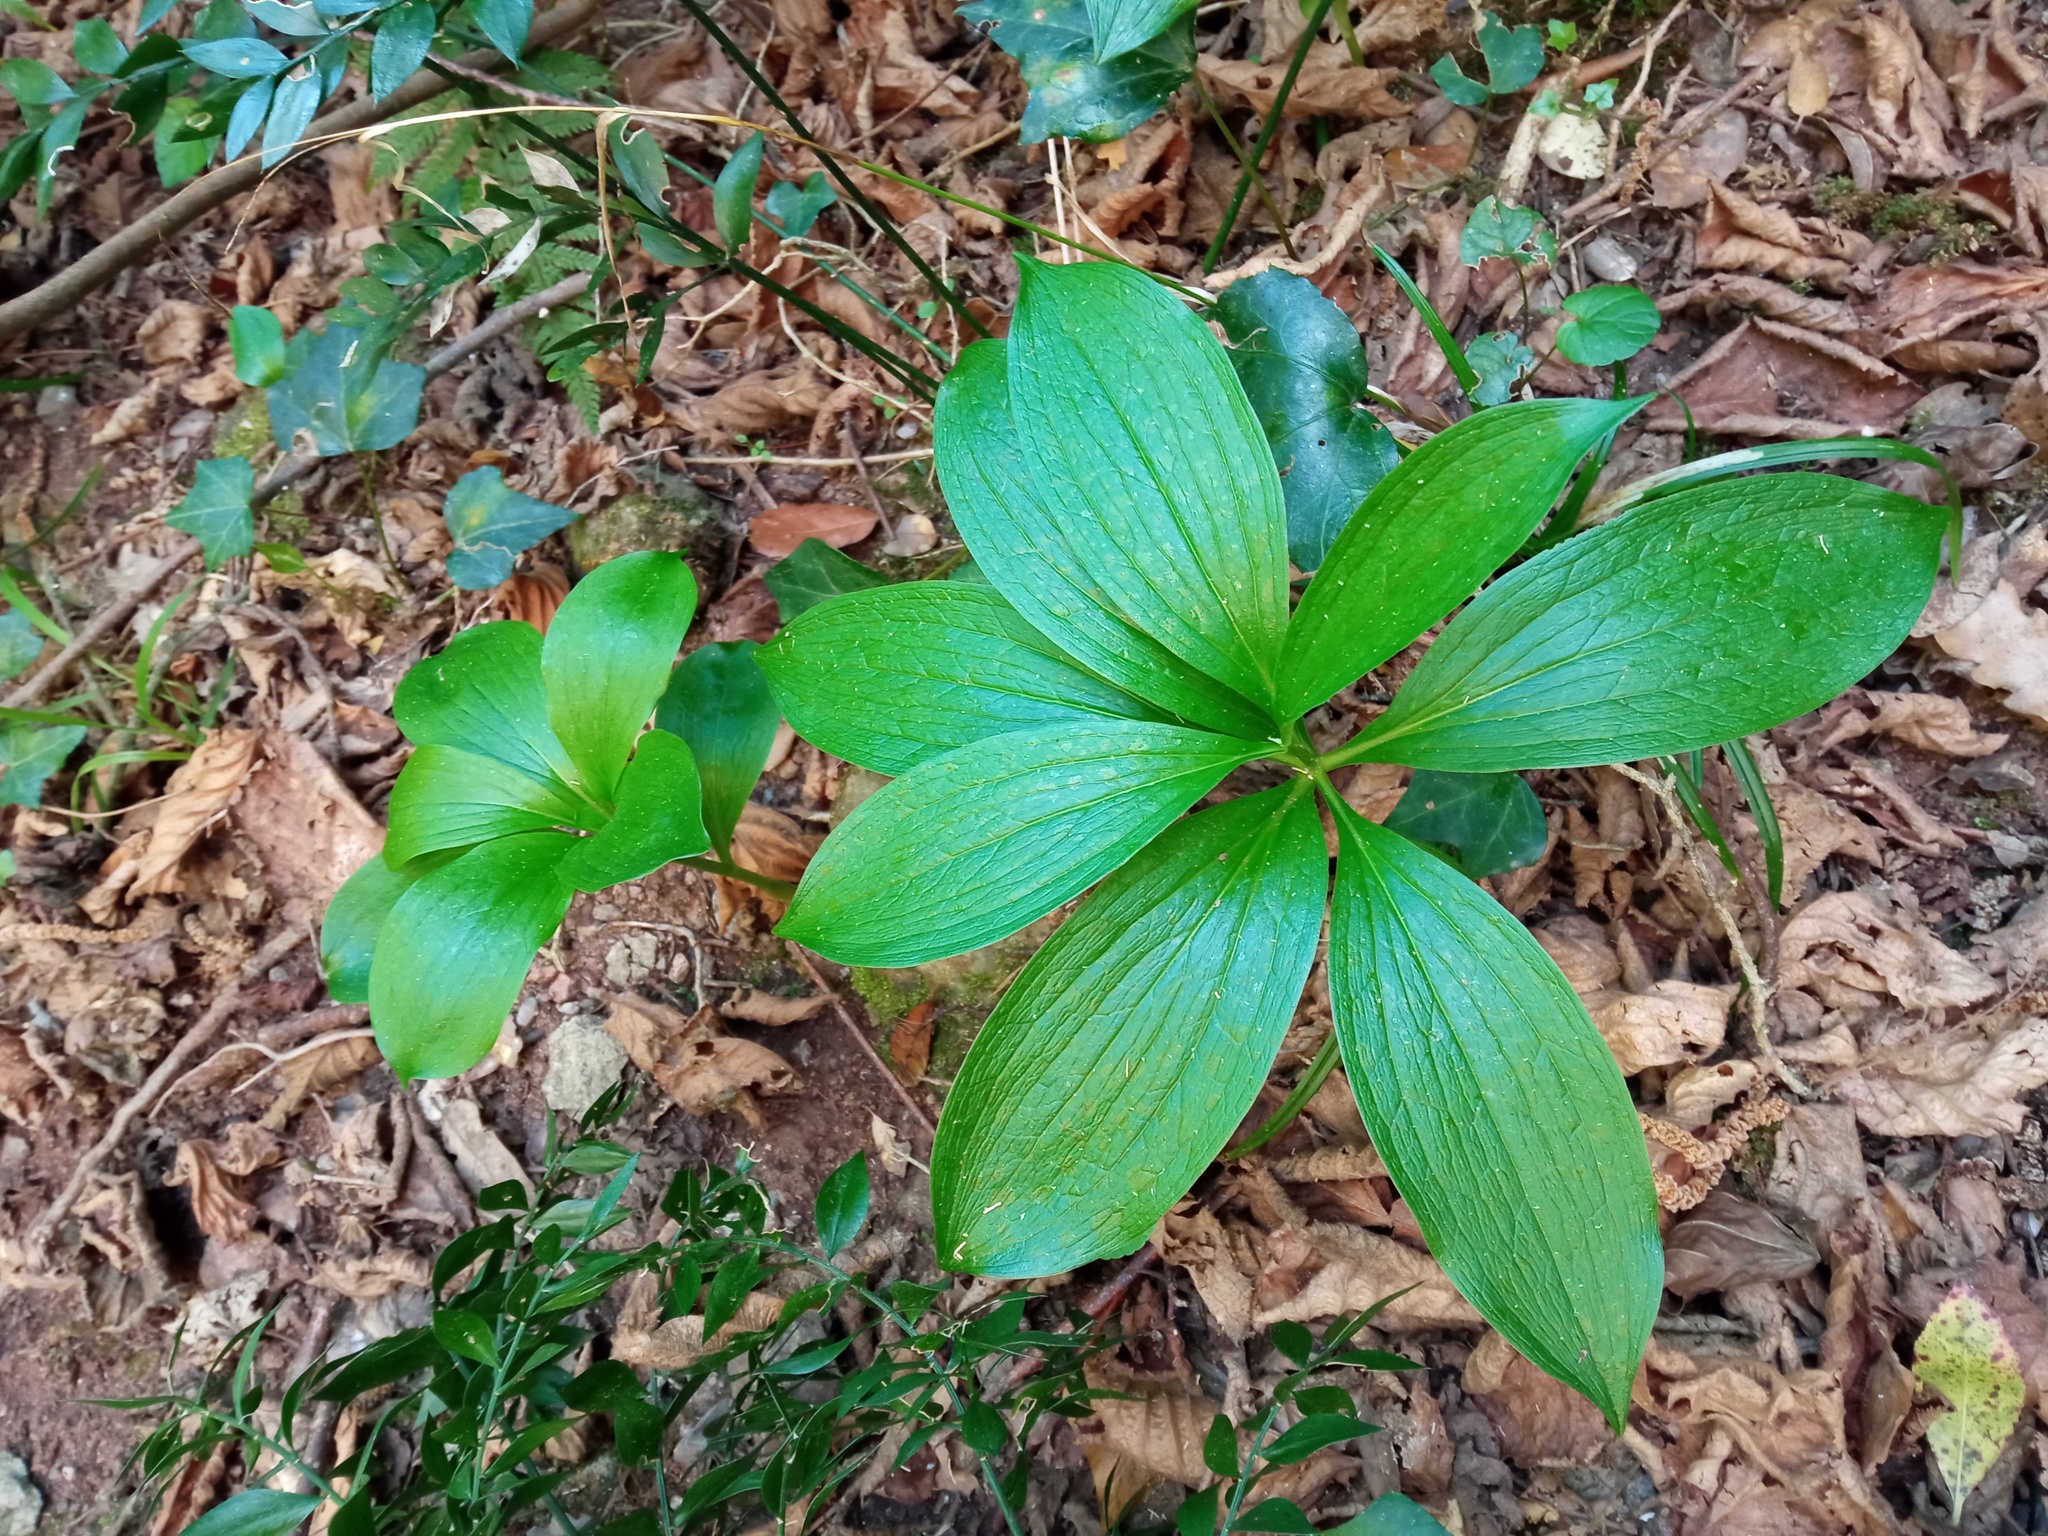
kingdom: Plantae
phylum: Tracheophyta
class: Liliopsida
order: Liliales
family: Liliaceae
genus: Lilium
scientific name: Lilium martagon
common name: Martagon lily
